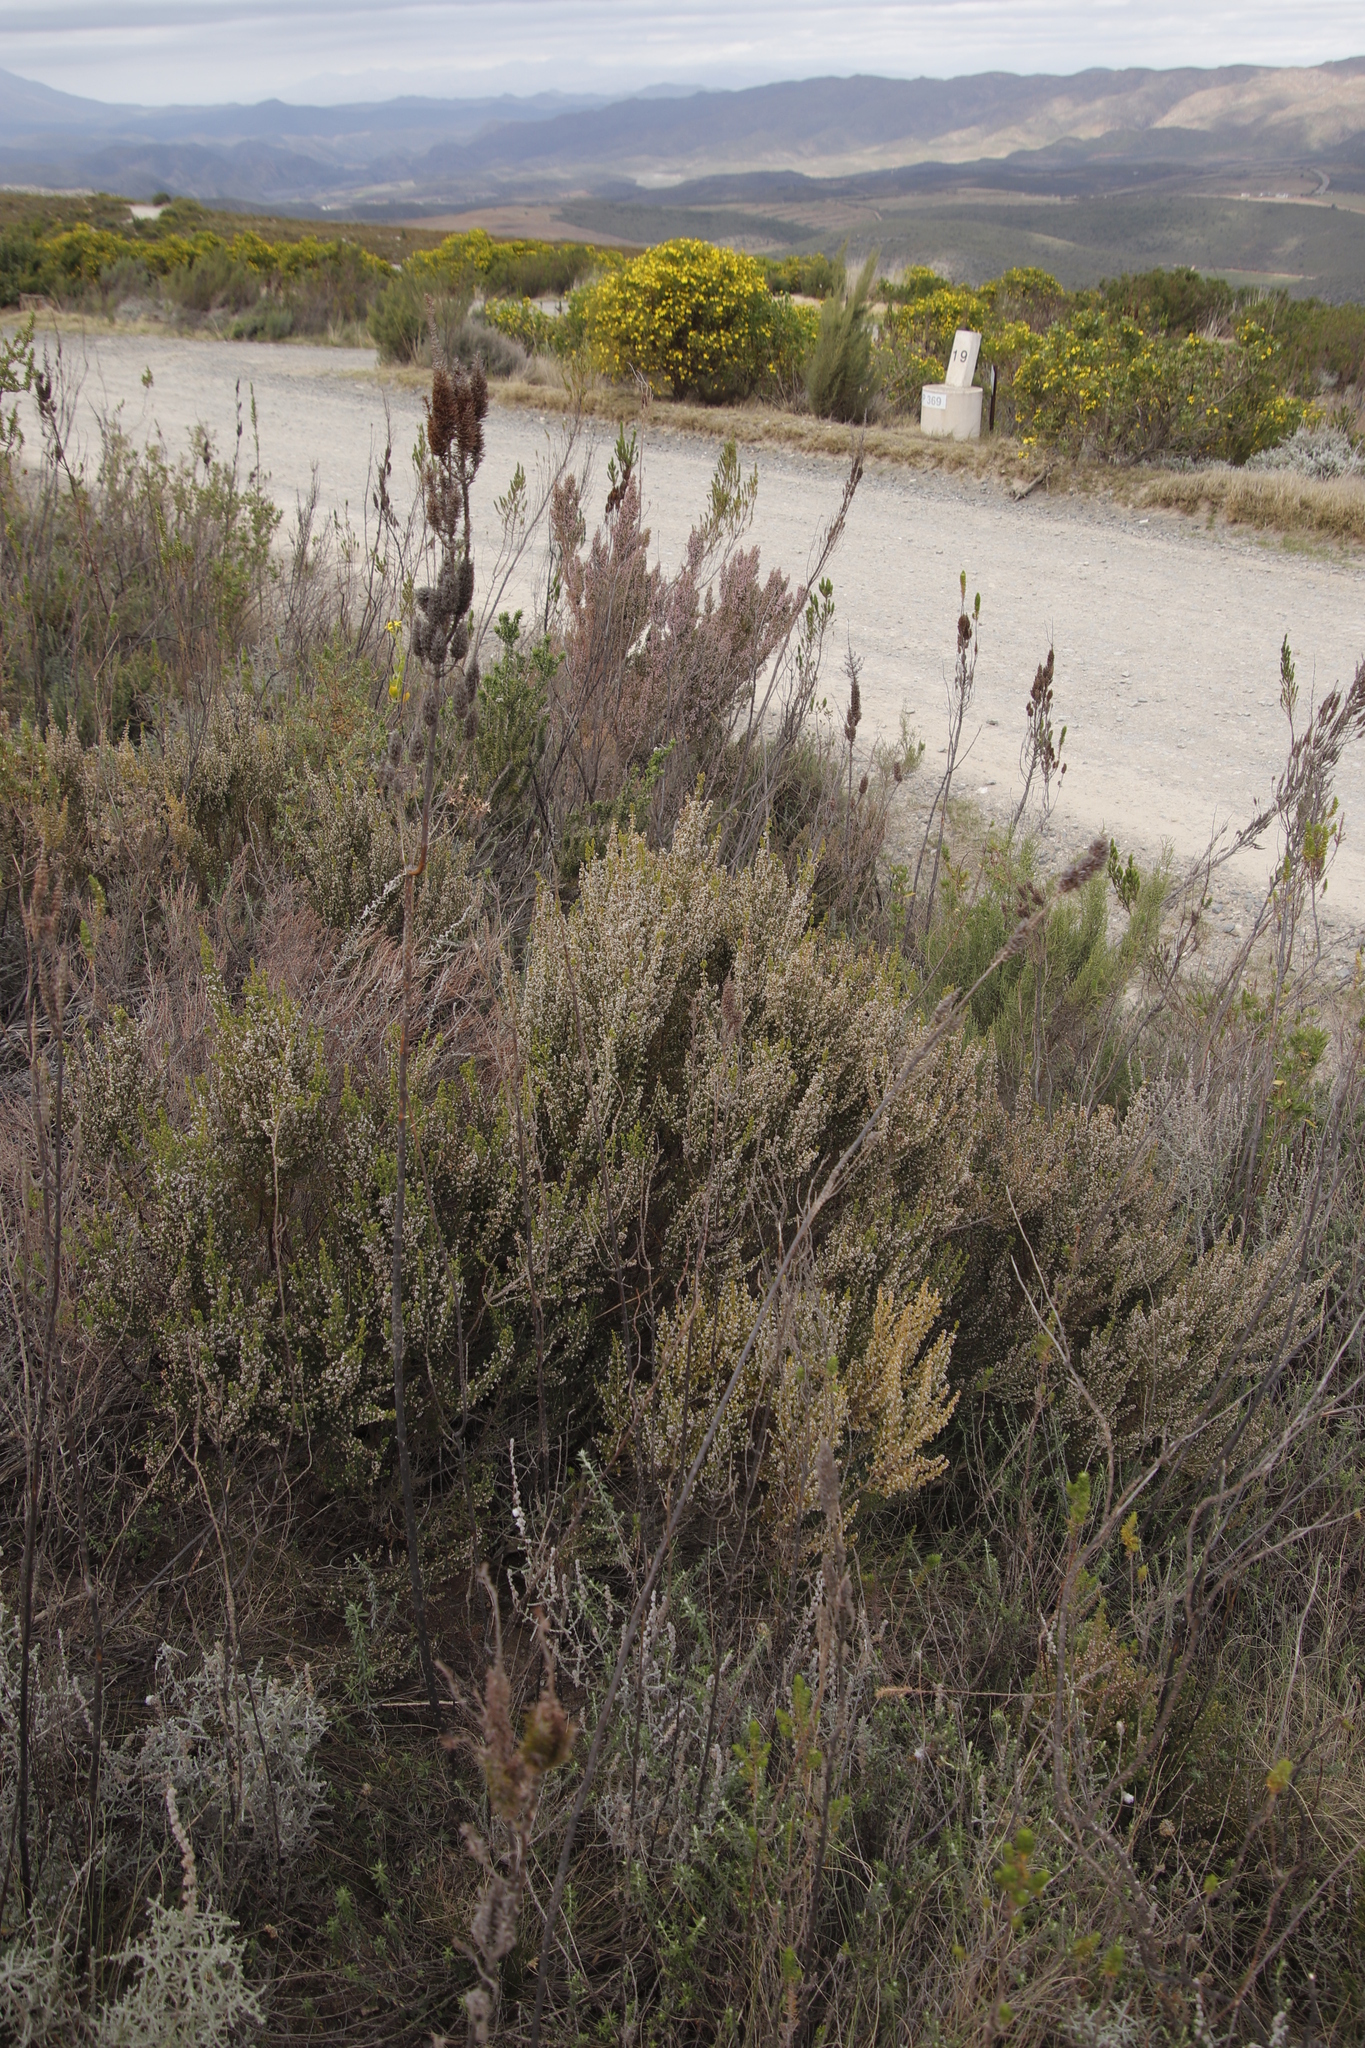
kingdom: Plantae
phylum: Tracheophyta
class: Magnoliopsida
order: Ericales
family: Ericaceae
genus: Erica
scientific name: Erica hispidula
